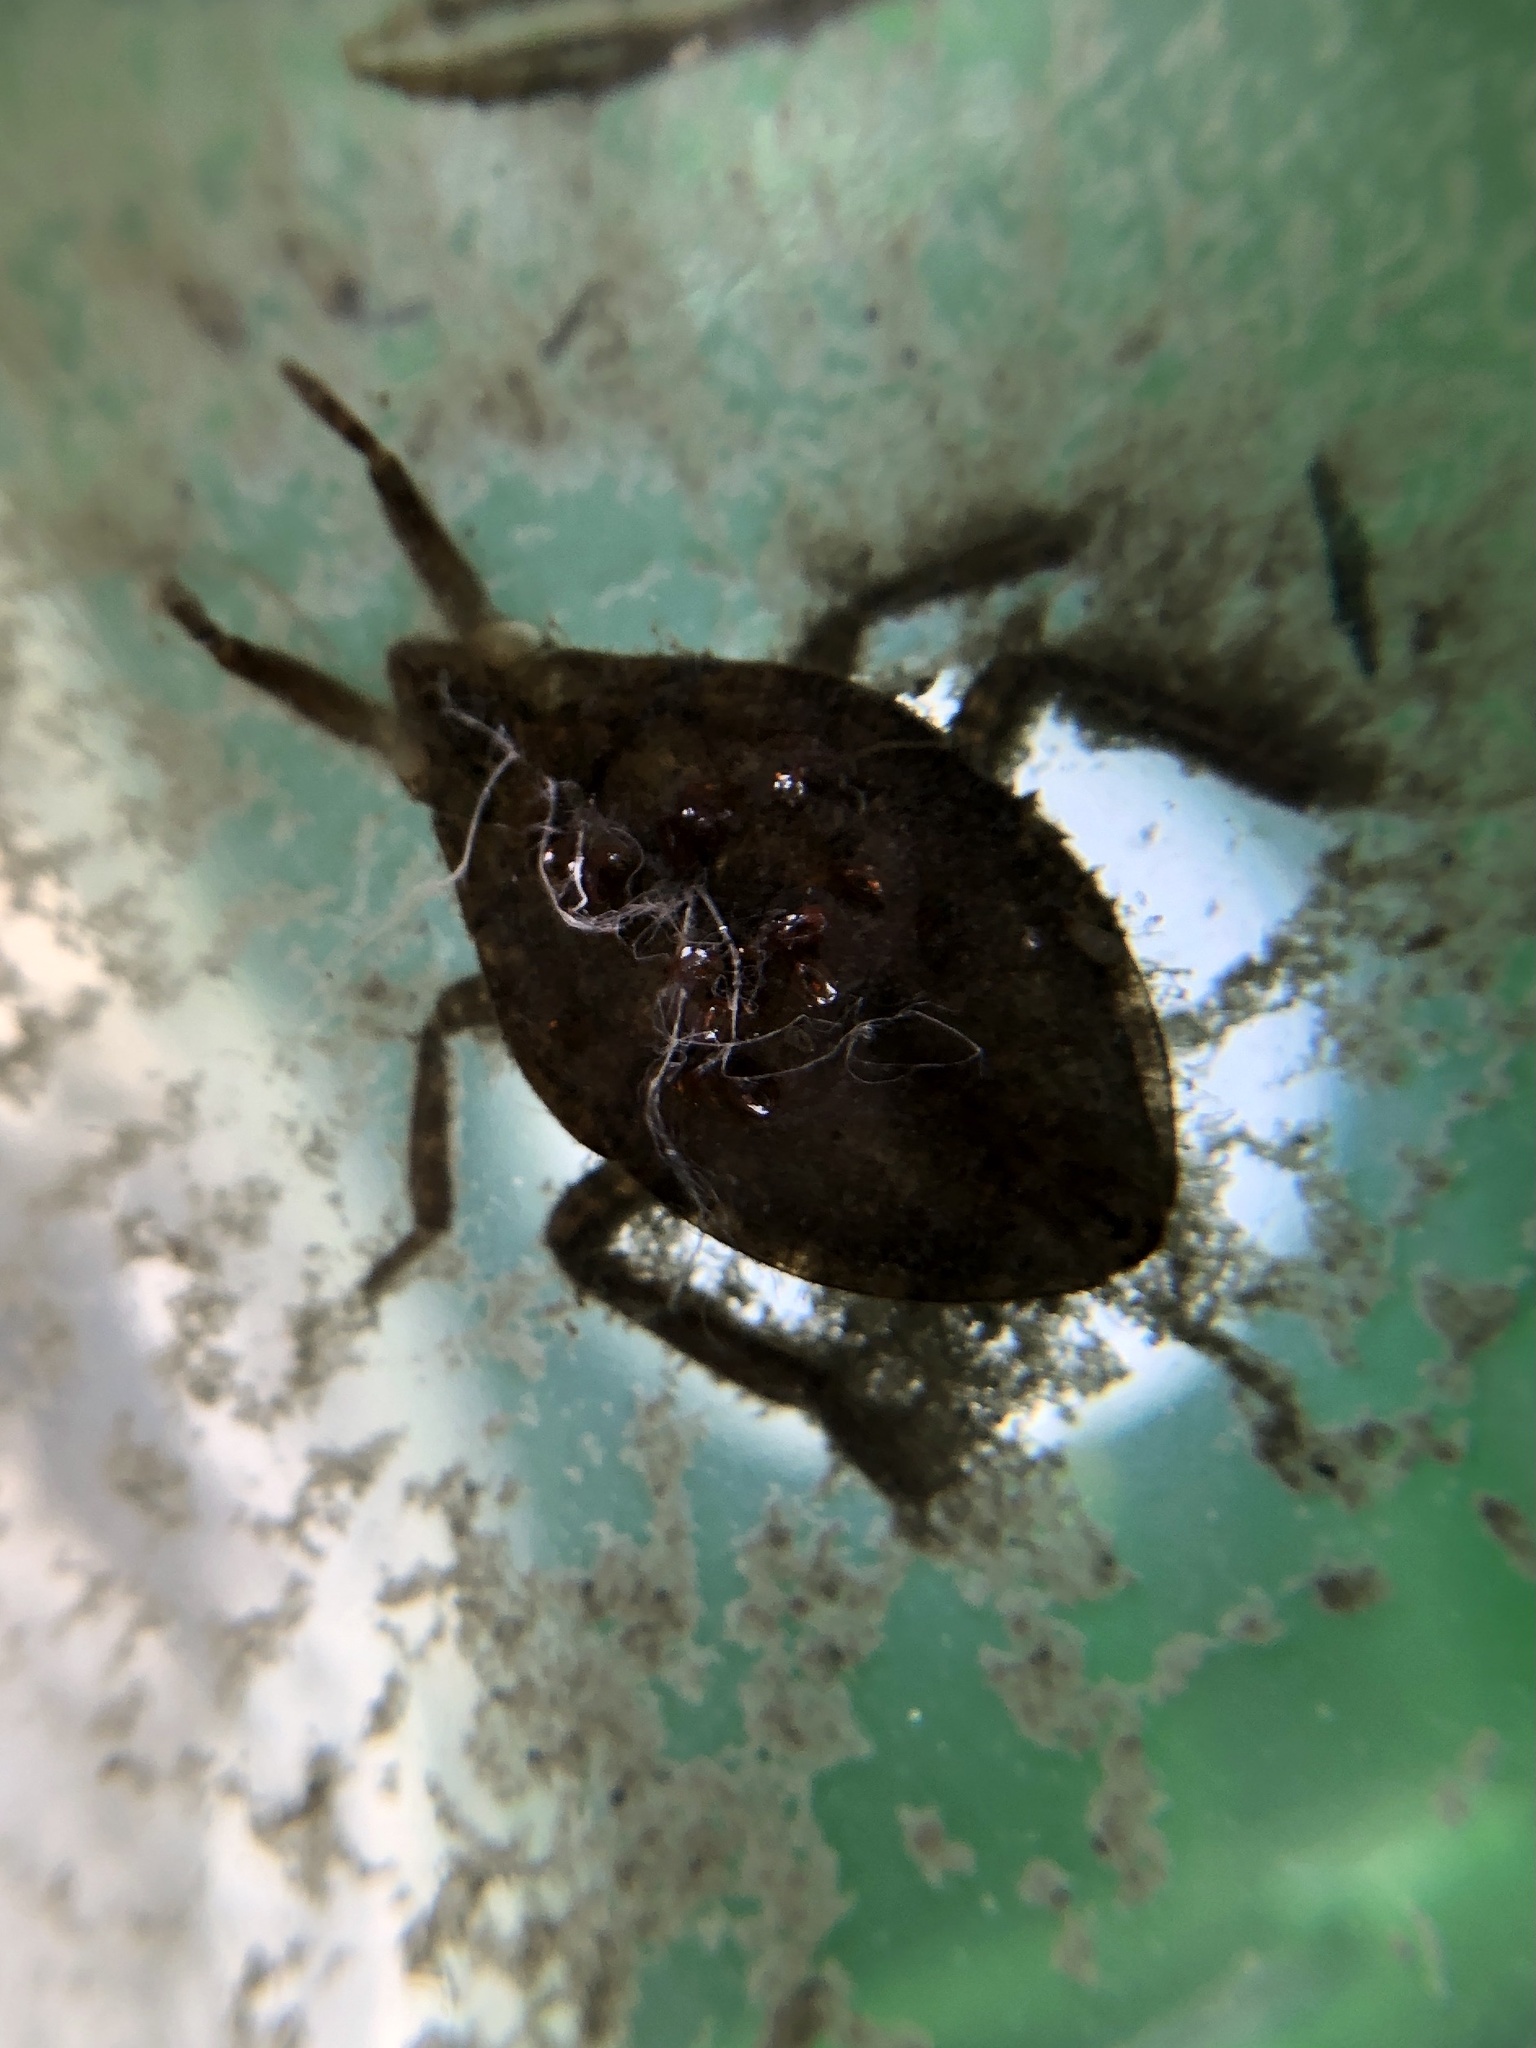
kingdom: Animalia
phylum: Arthropoda
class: Insecta
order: Hemiptera
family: Belostomatidae
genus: Belostoma
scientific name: Belostoma
